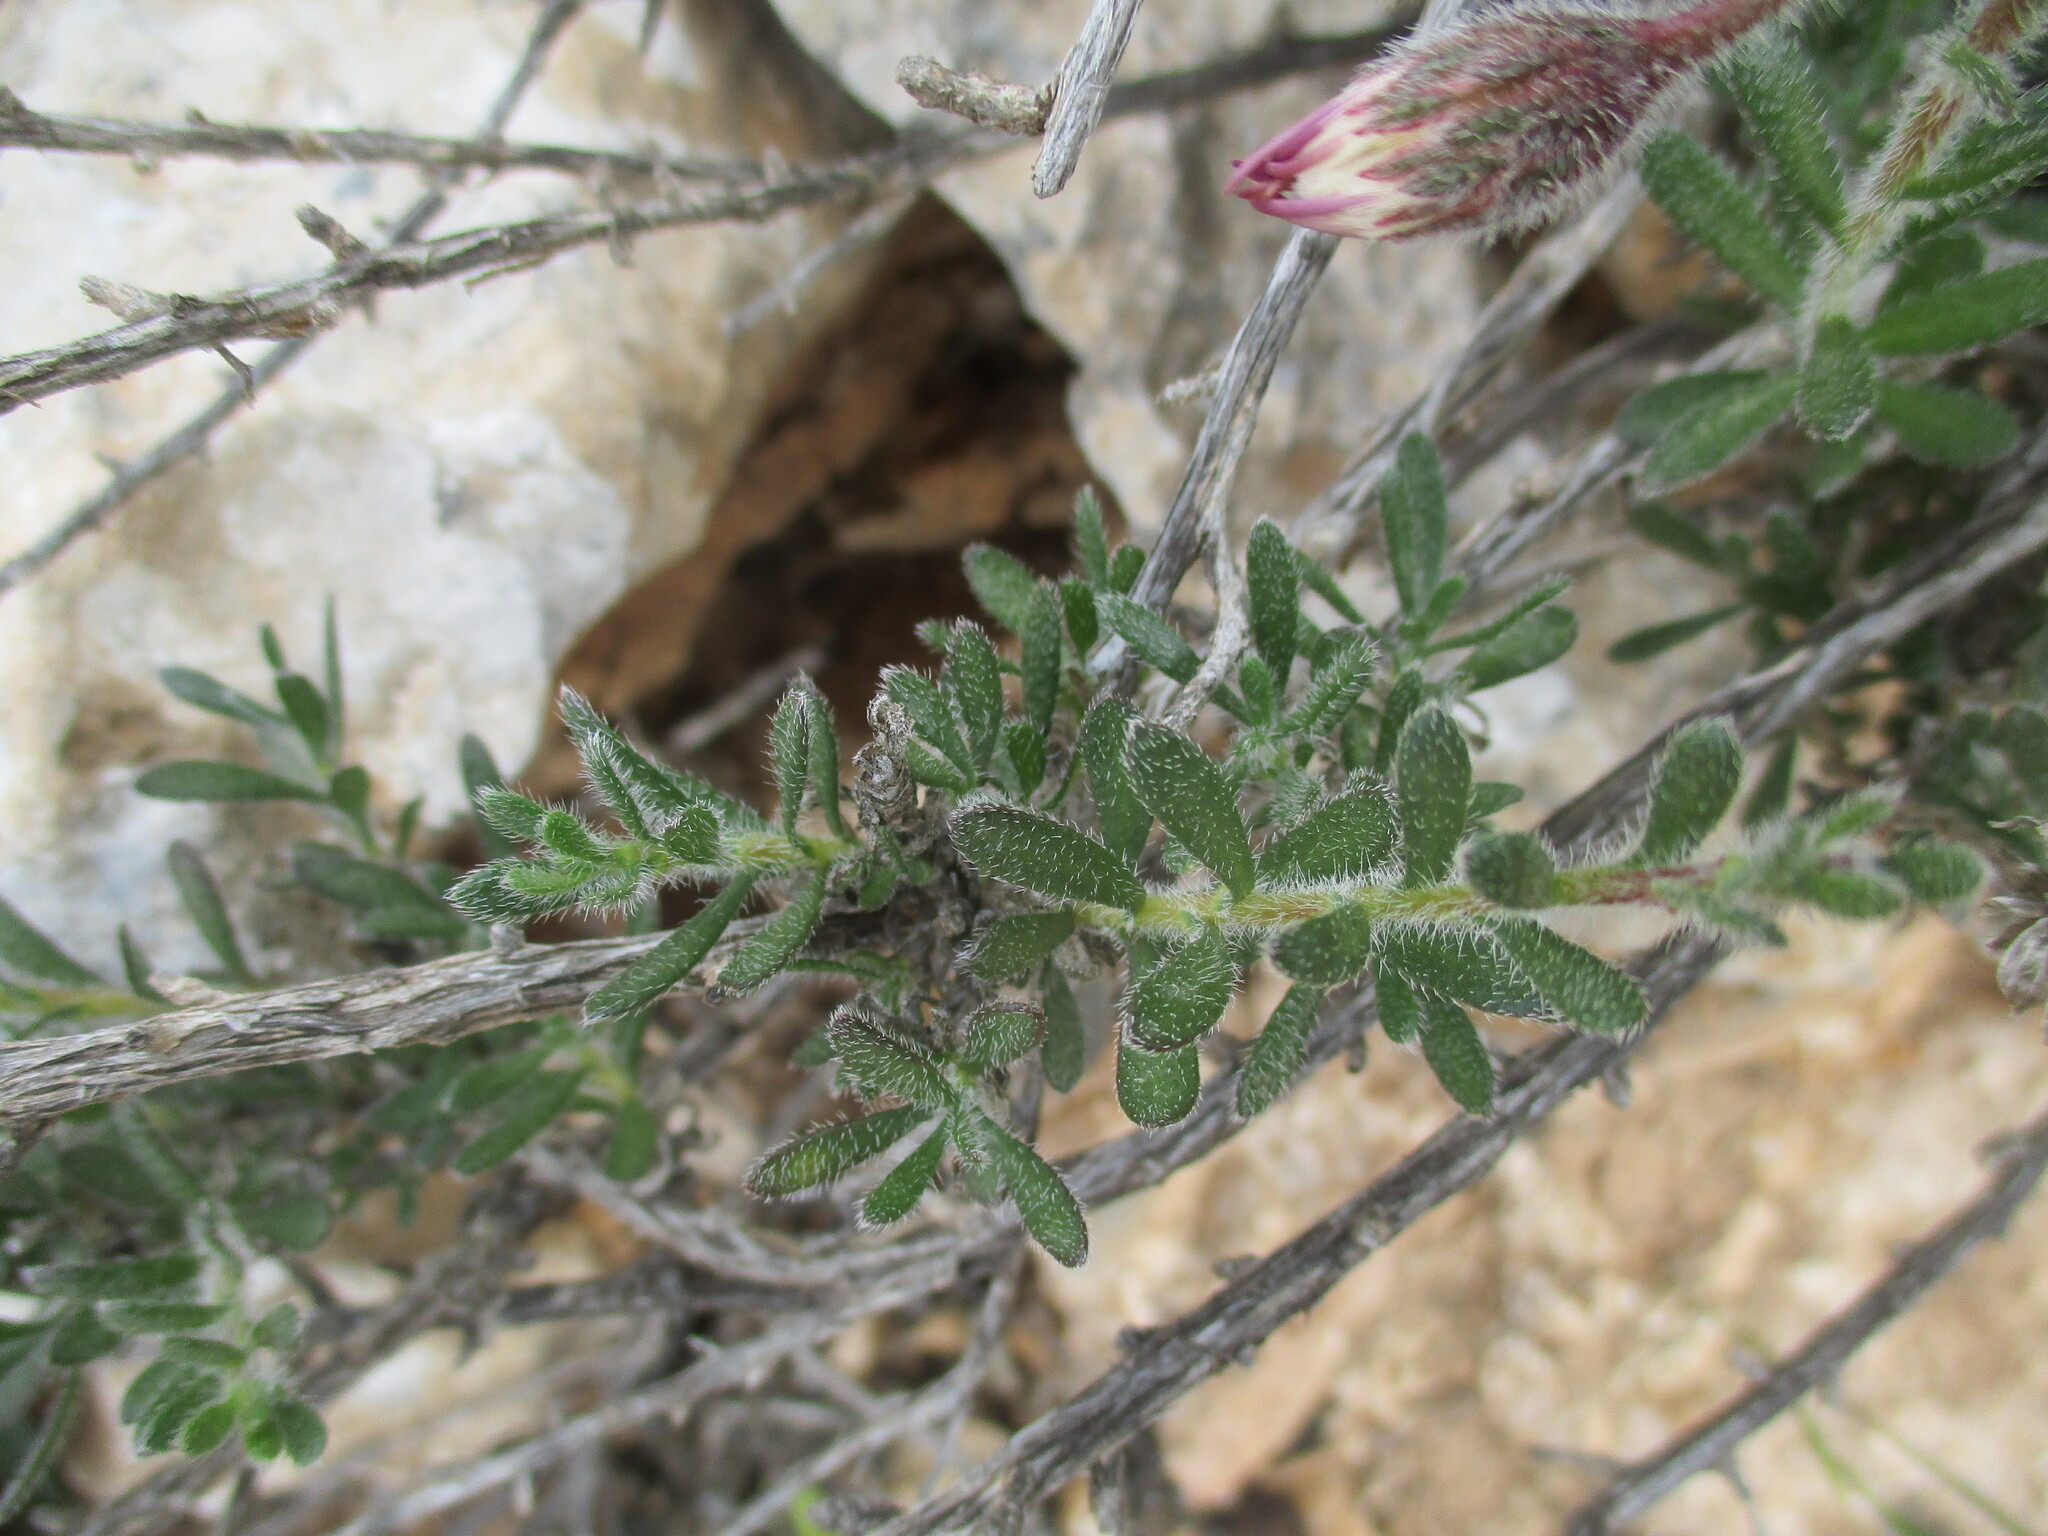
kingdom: Plantae
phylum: Tracheophyta
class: Magnoliopsida
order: Asterales
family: Asteraceae
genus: Felicia
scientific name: Felicia hirsuta
